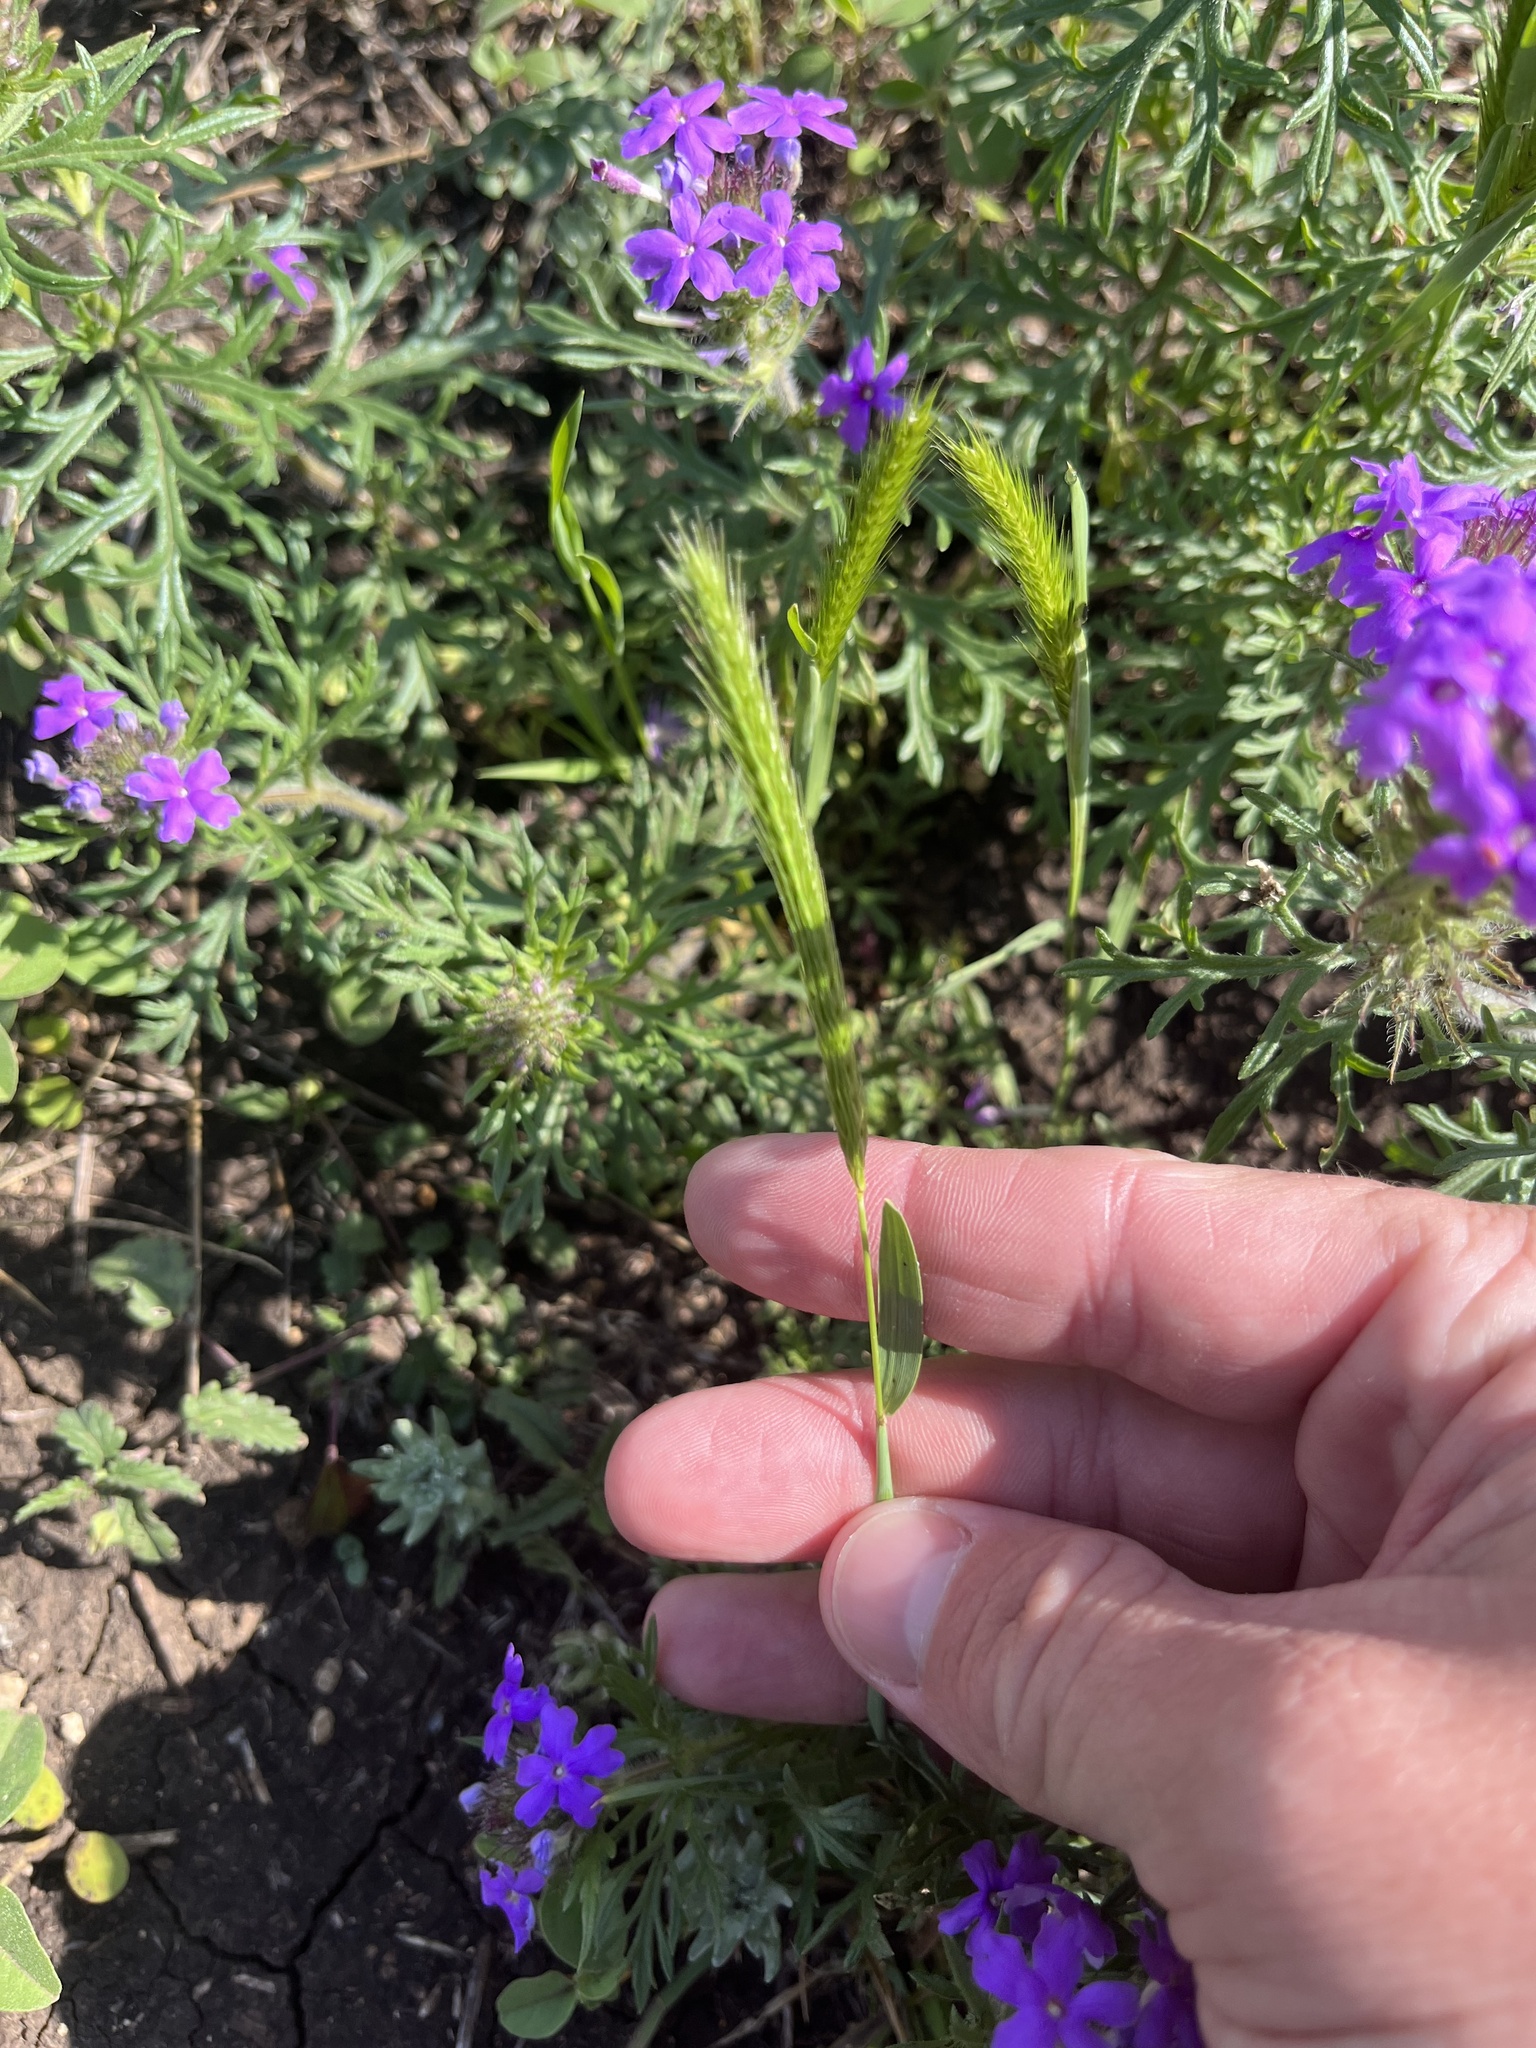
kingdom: Plantae
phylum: Tracheophyta
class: Liliopsida
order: Poales
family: Poaceae
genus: Hordeum
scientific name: Hordeum pusillum
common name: Little barley
